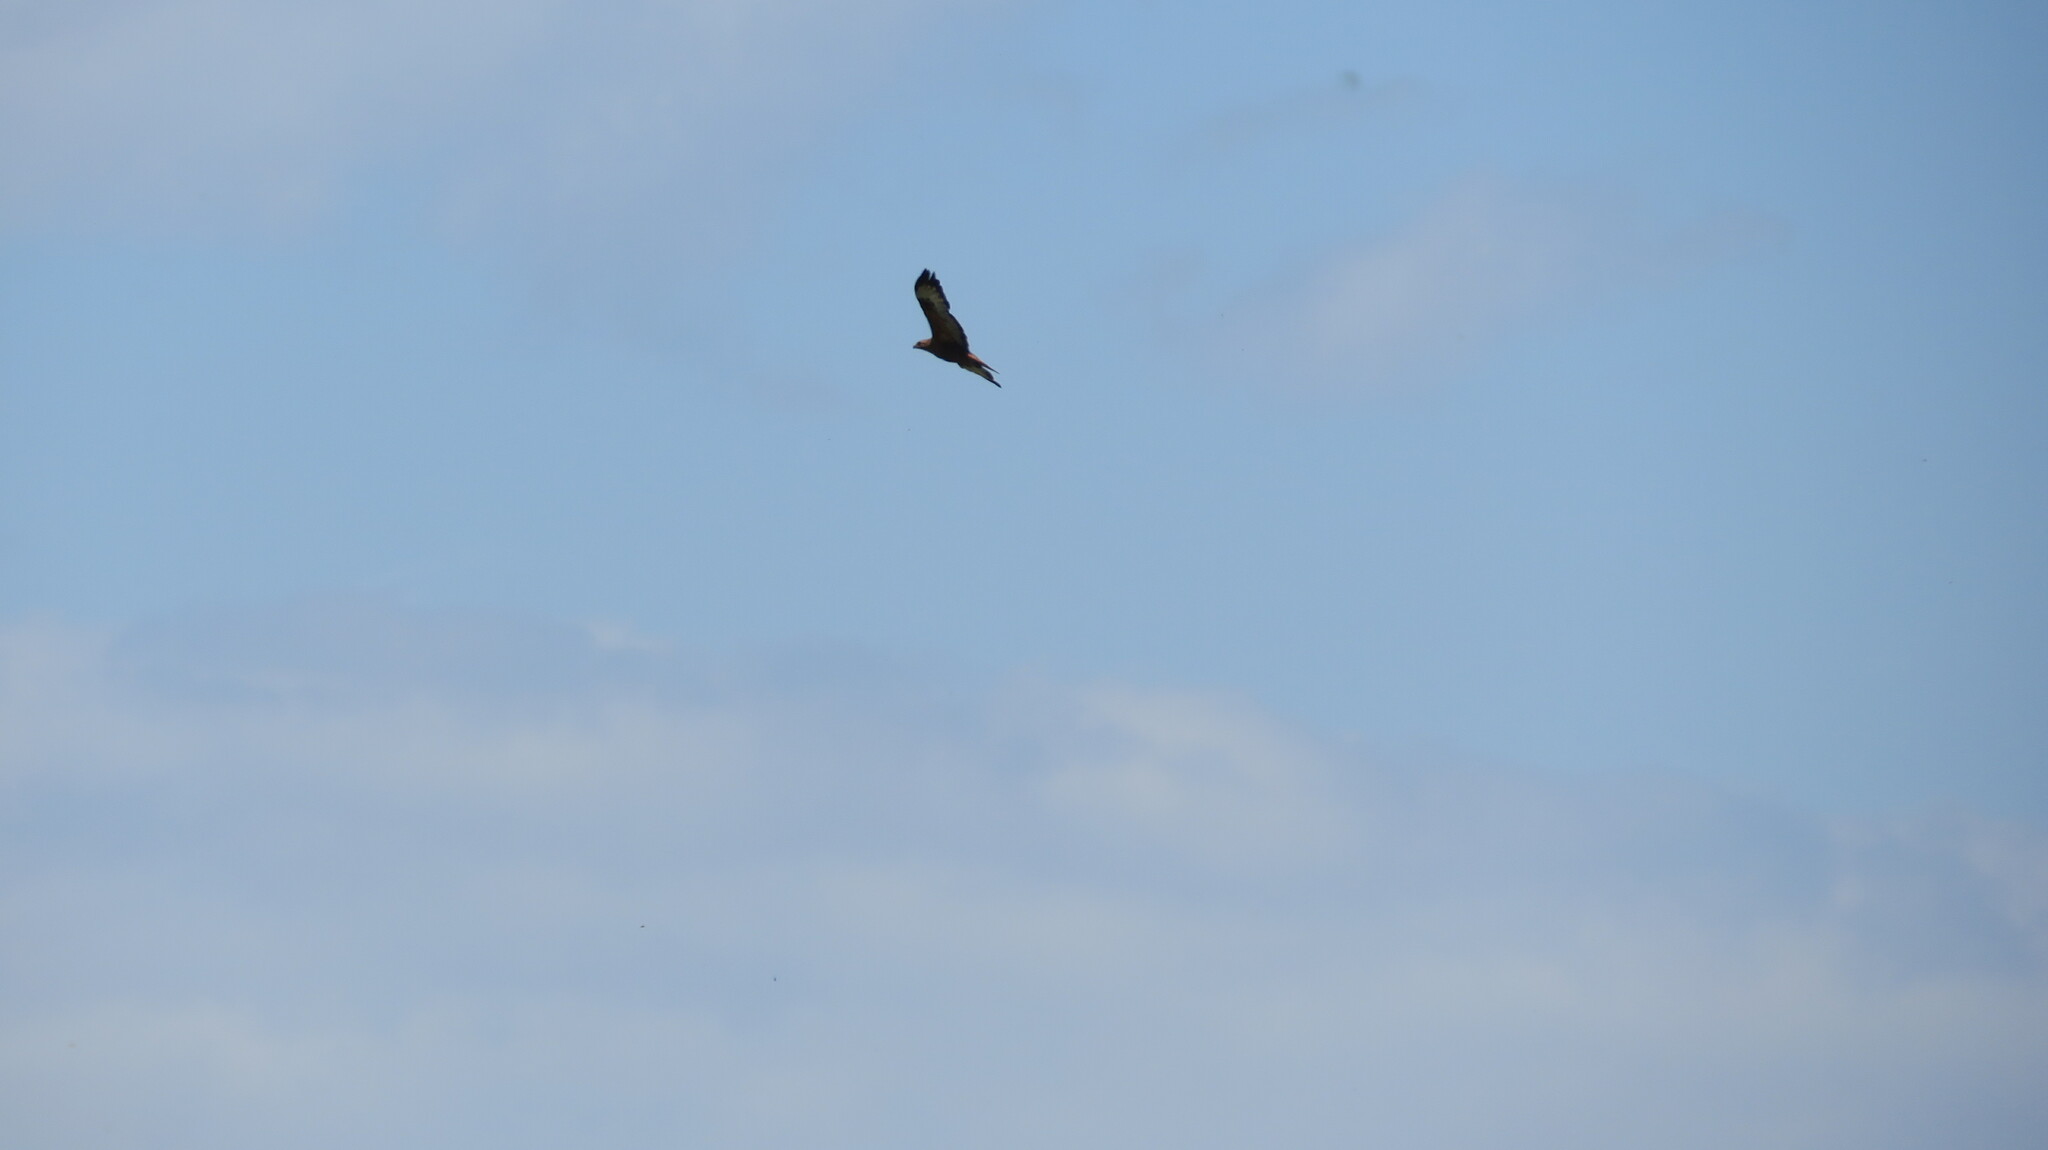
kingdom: Animalia
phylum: Chordata
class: Aves
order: Accipitriformes
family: Accipitridae
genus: Buteo
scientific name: Buteo buteo
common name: Common buzzard
